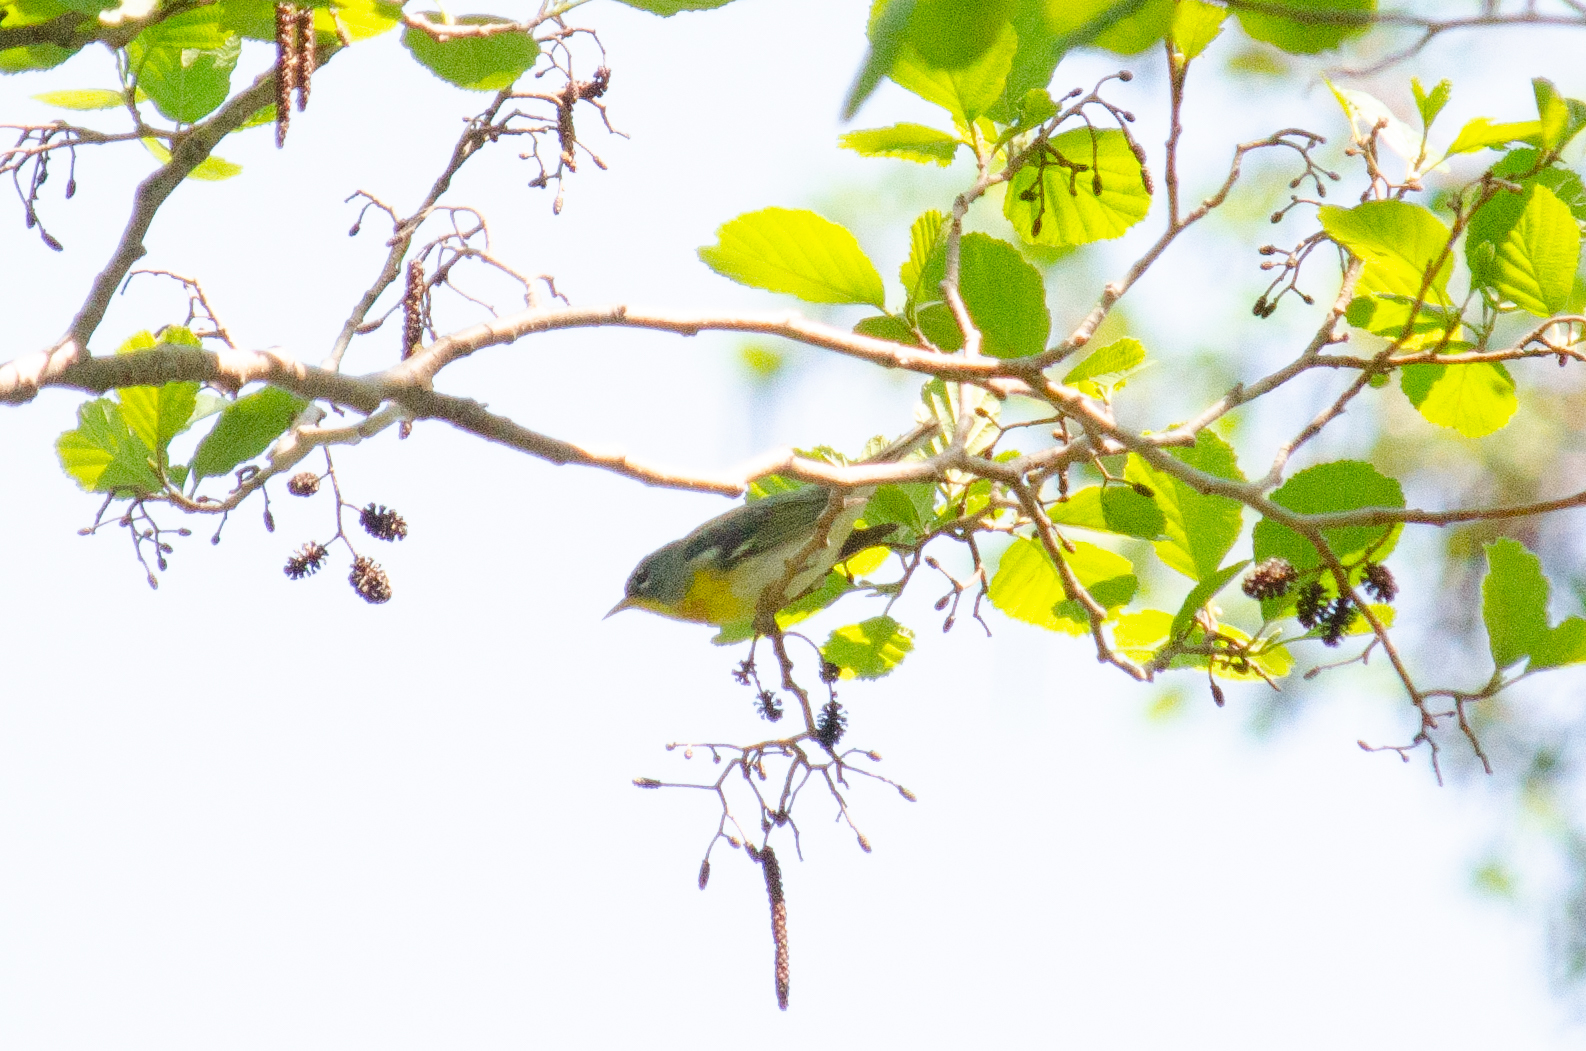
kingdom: Animalia
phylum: Chordata
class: Aves
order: Passeriformes
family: Parulidae
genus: Setophaga
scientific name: Setophaga americana
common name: Northern parula
